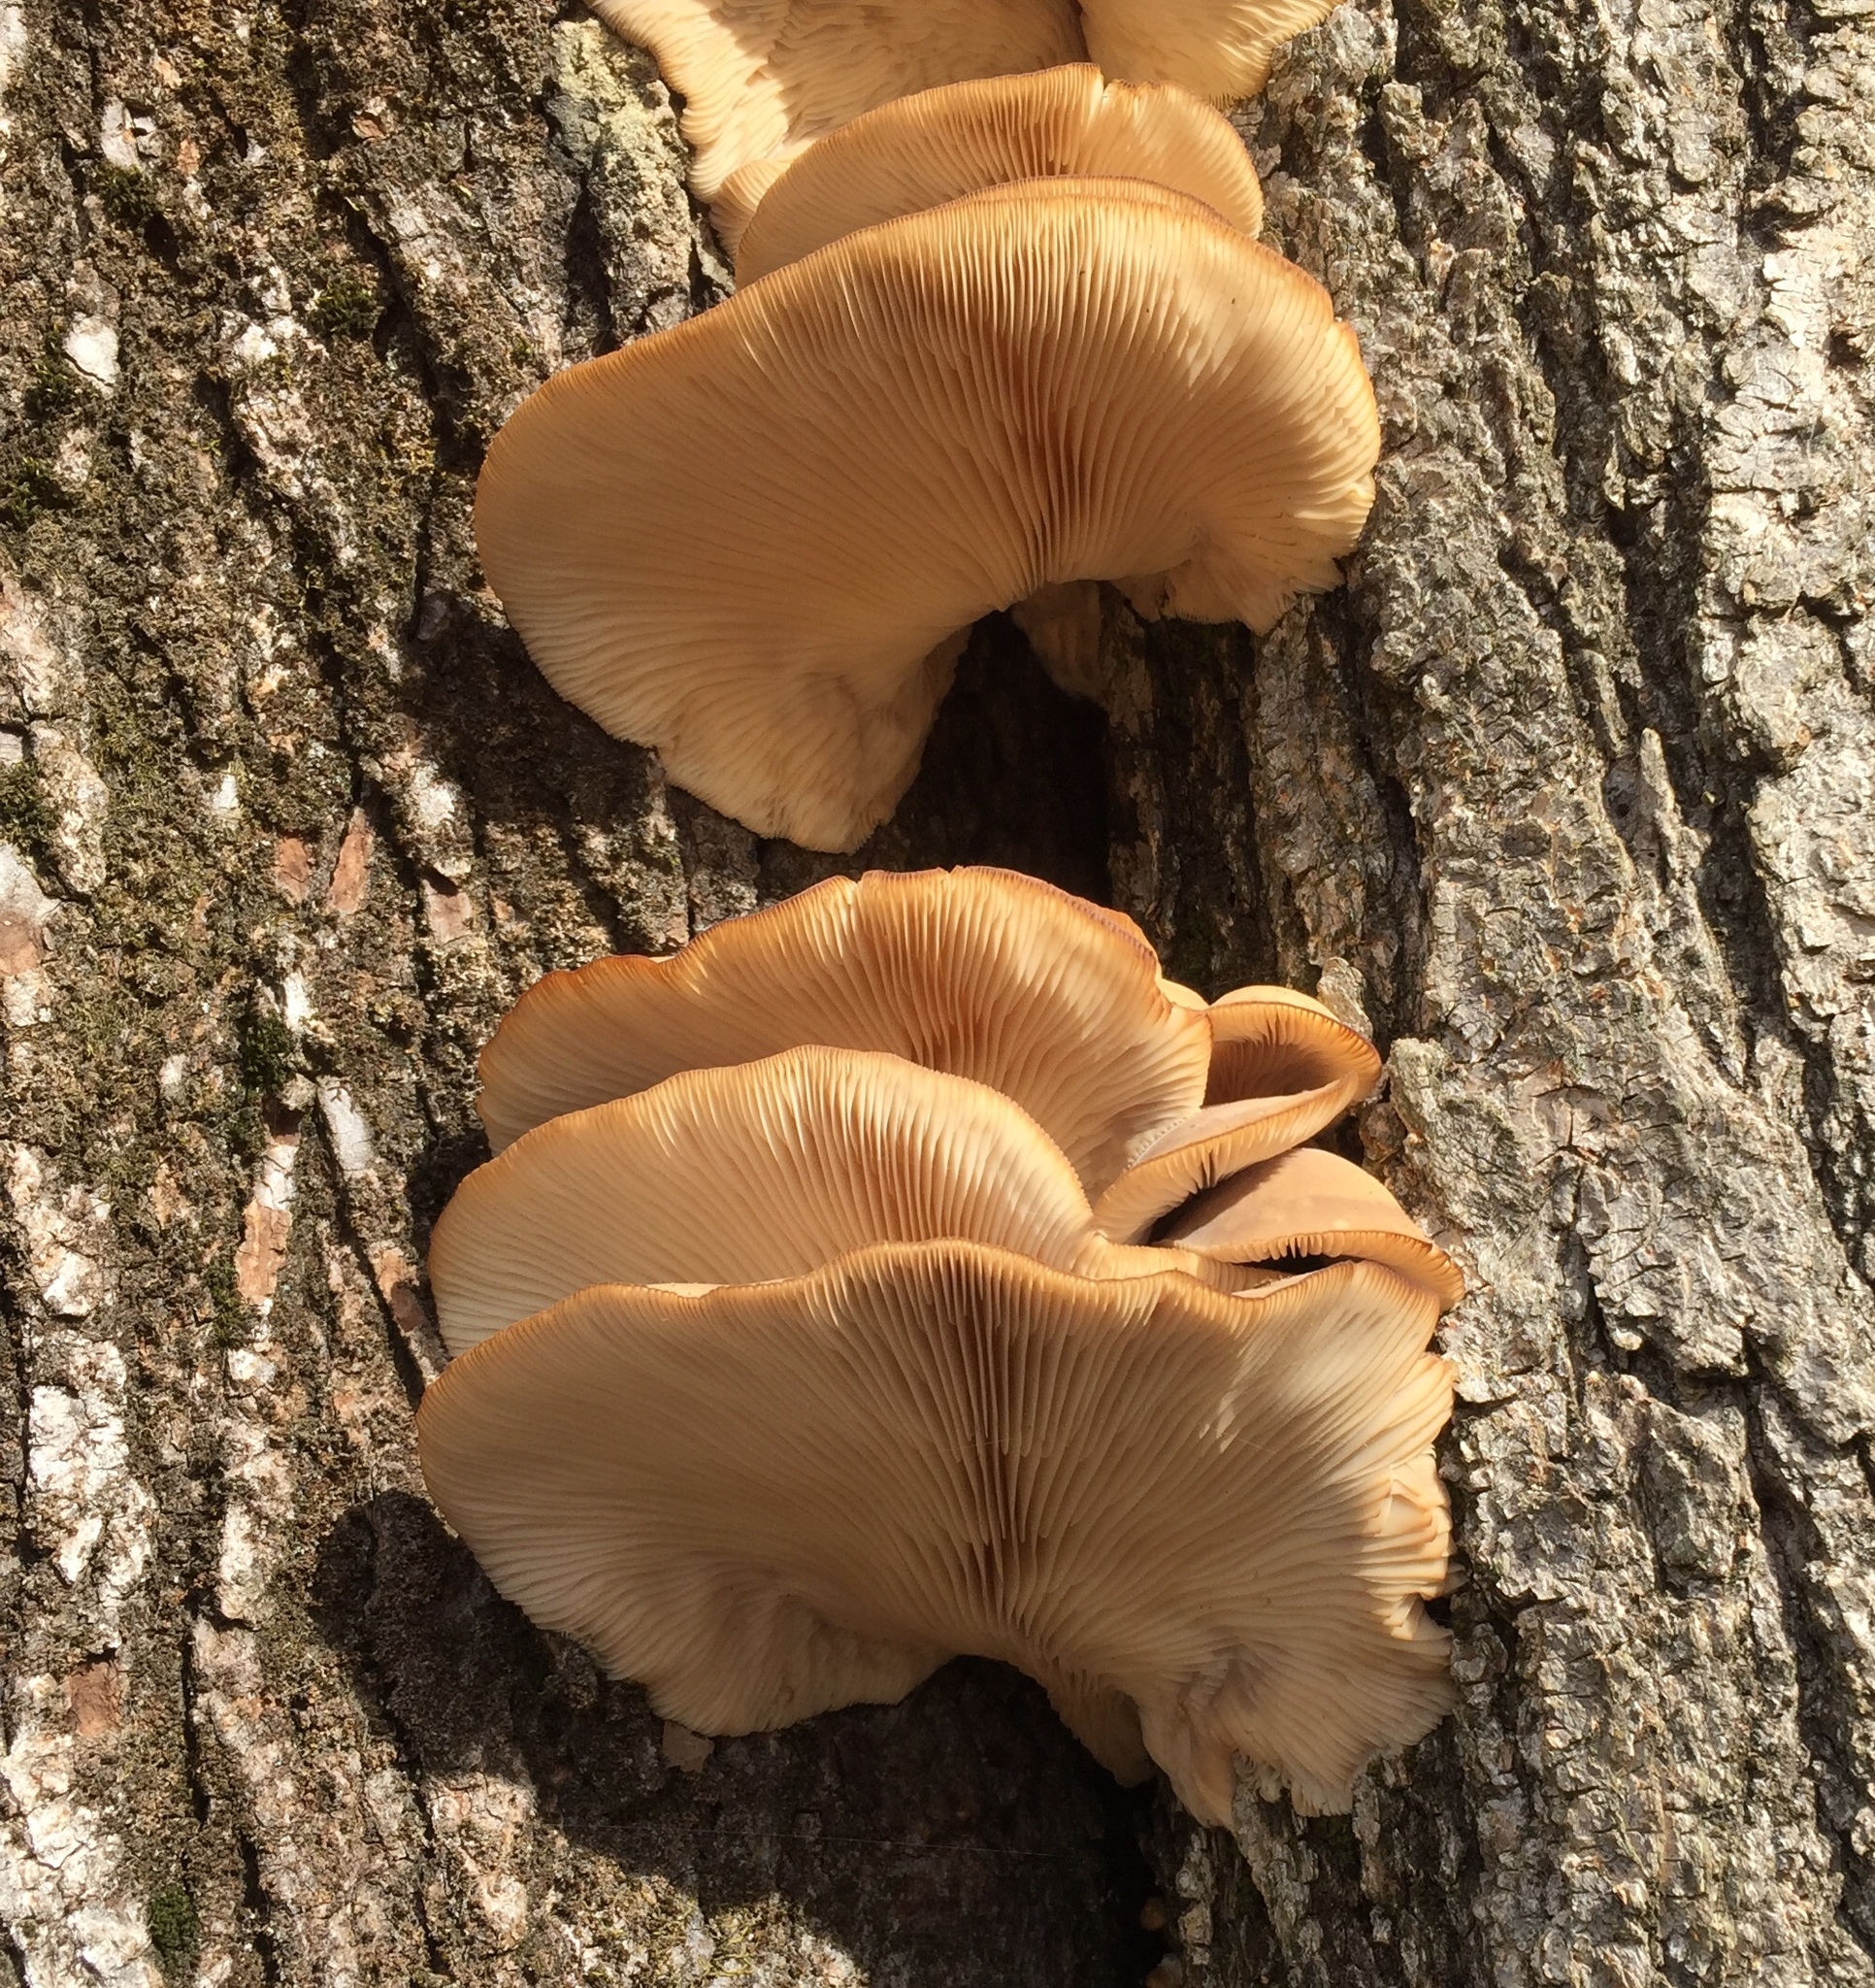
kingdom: Fungi
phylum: Basidiomycota
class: Agaricomycetes
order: Agaricales
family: Pleurotaceae
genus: Pleurotus
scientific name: Pleurotus ostreatus
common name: Oyster mushroom
